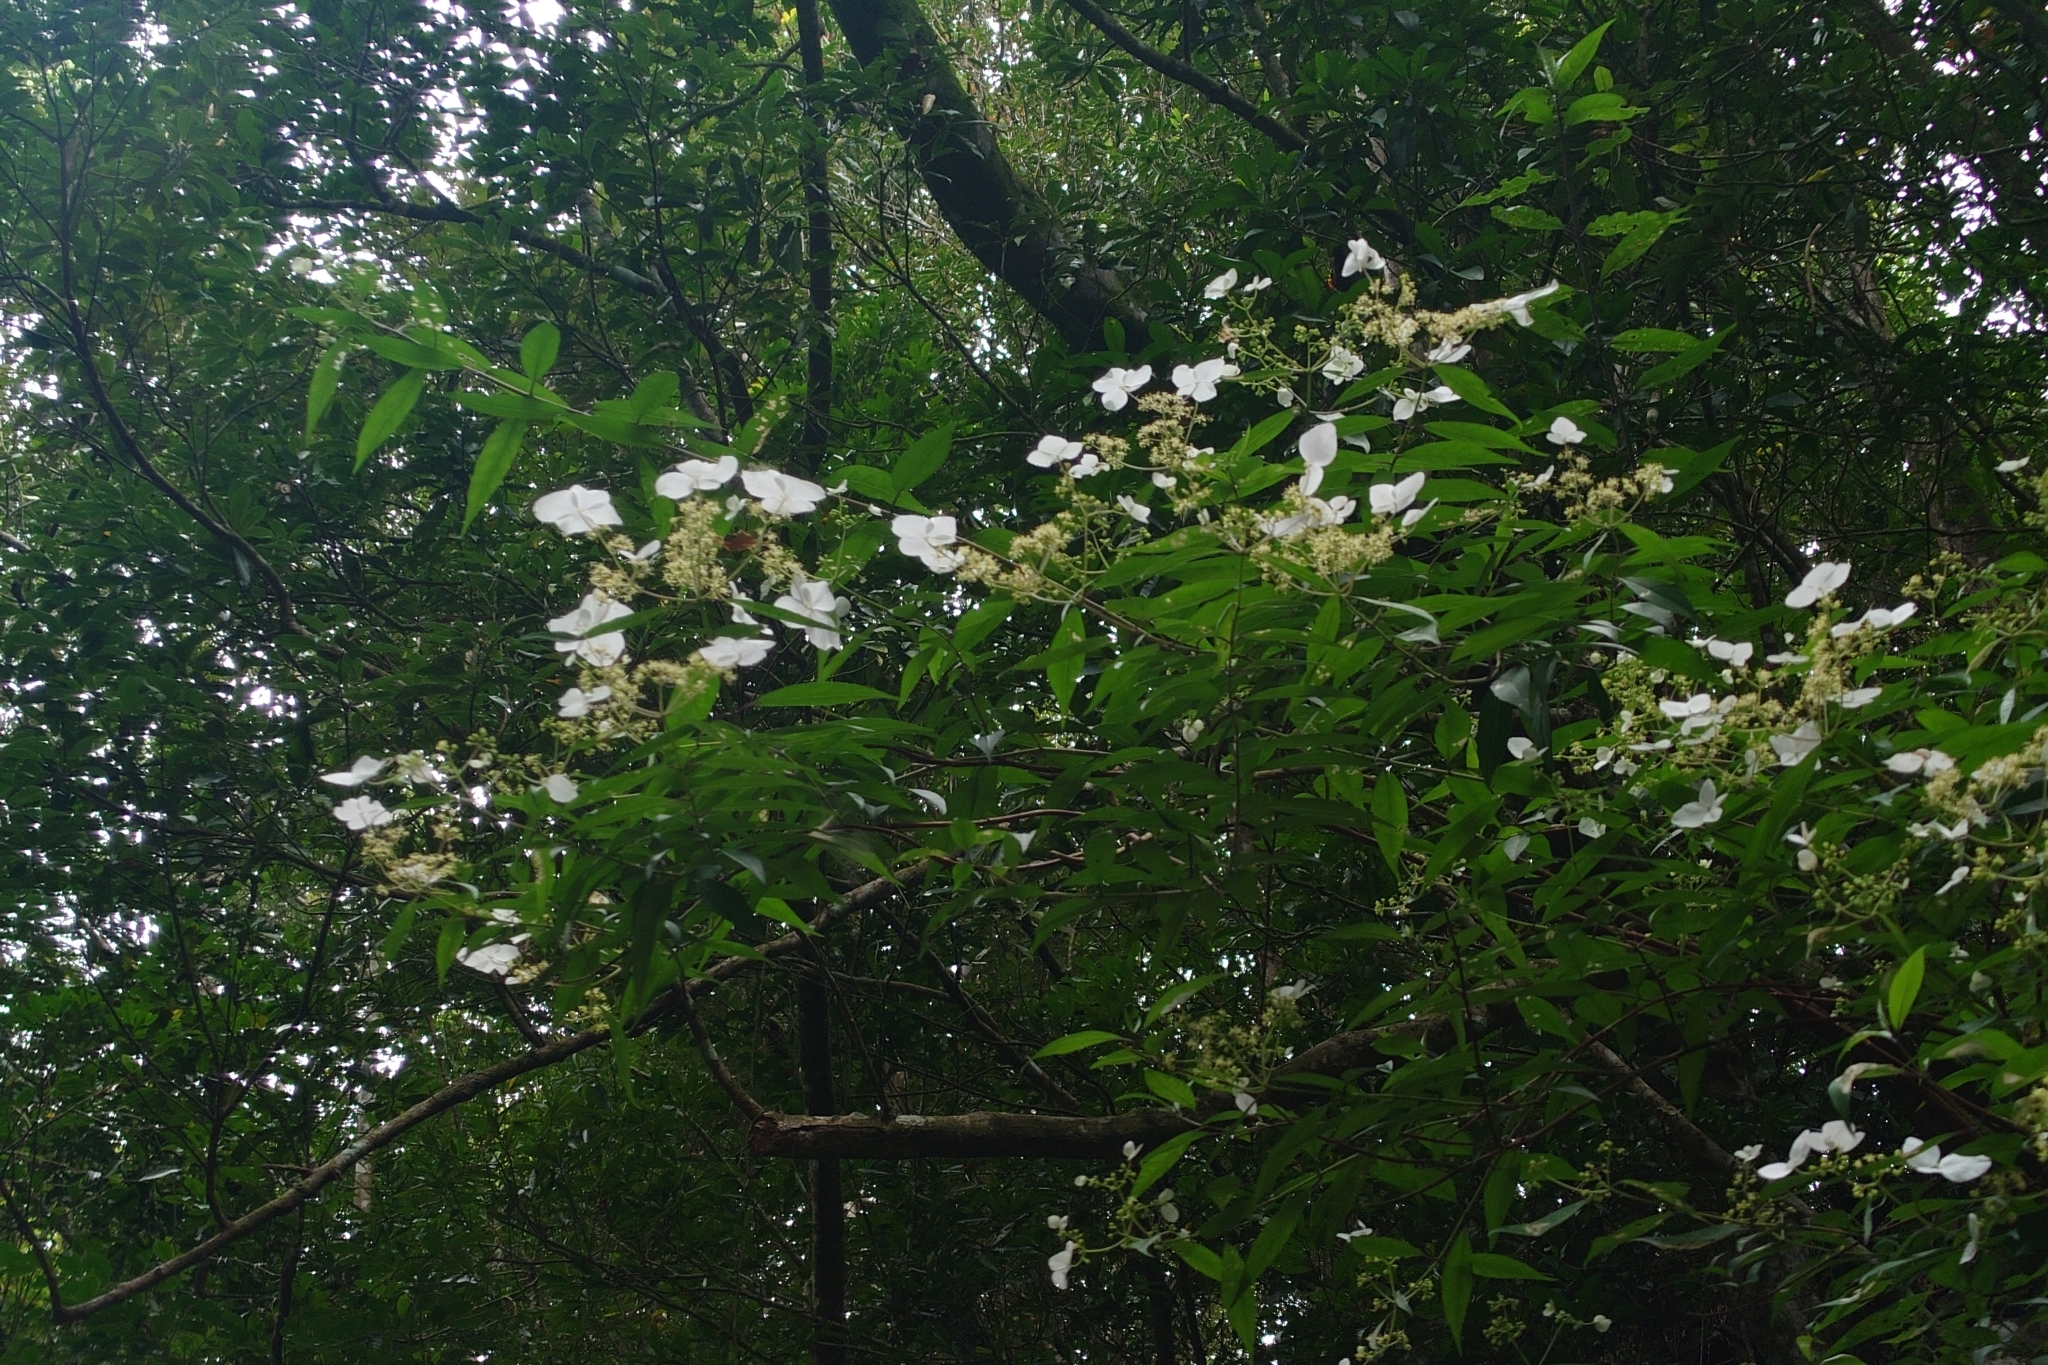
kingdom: Plantae
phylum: Tracheophyta
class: Magnoliopsida
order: Cornales
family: Hydrangeaceae
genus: Hydrangea
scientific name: Hydrangea chinensis
